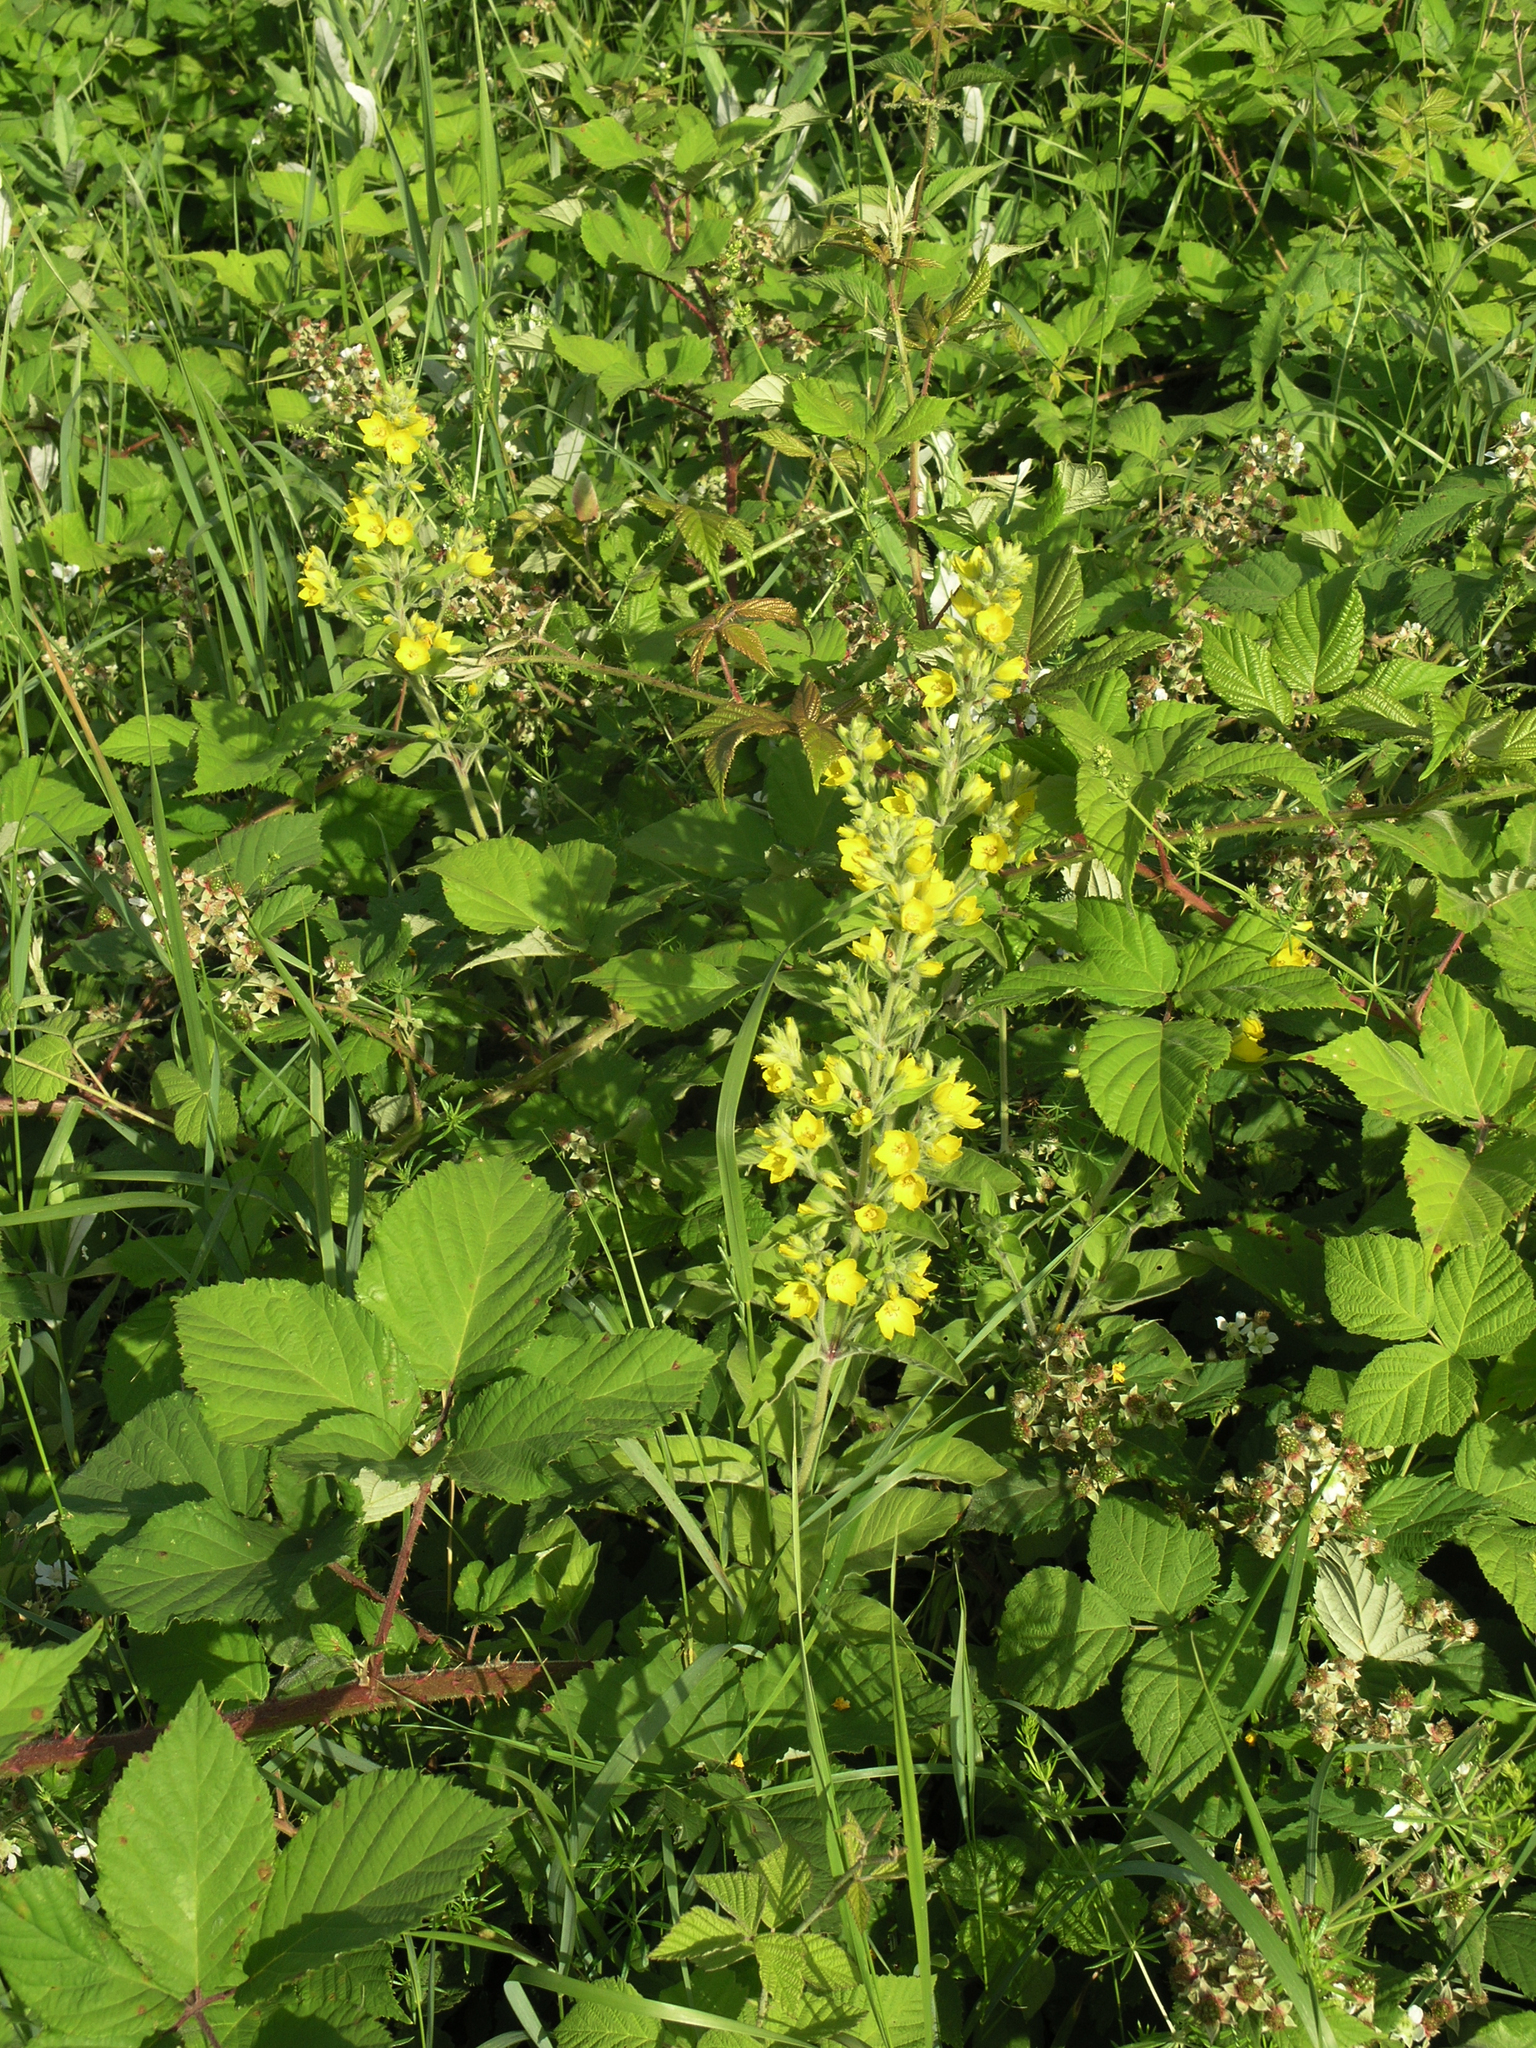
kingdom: Plantae
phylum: Tracheophyta
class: Magnoliopsida
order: Ericales
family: Primulaceae
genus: Lysimachia
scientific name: Lysimachia verticillaris
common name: Yellow loosestrife
